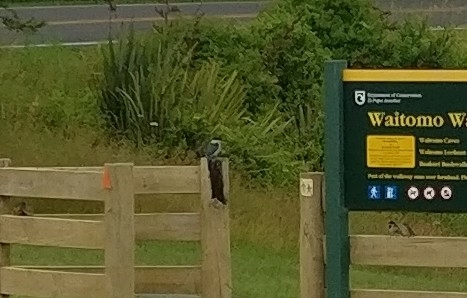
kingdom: Animalia
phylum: Chordata
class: Aves
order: Coraciiformes
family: Alcedinidae
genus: Todiramphus
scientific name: Todiramphus sanctus
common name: Sacred kingfisher
